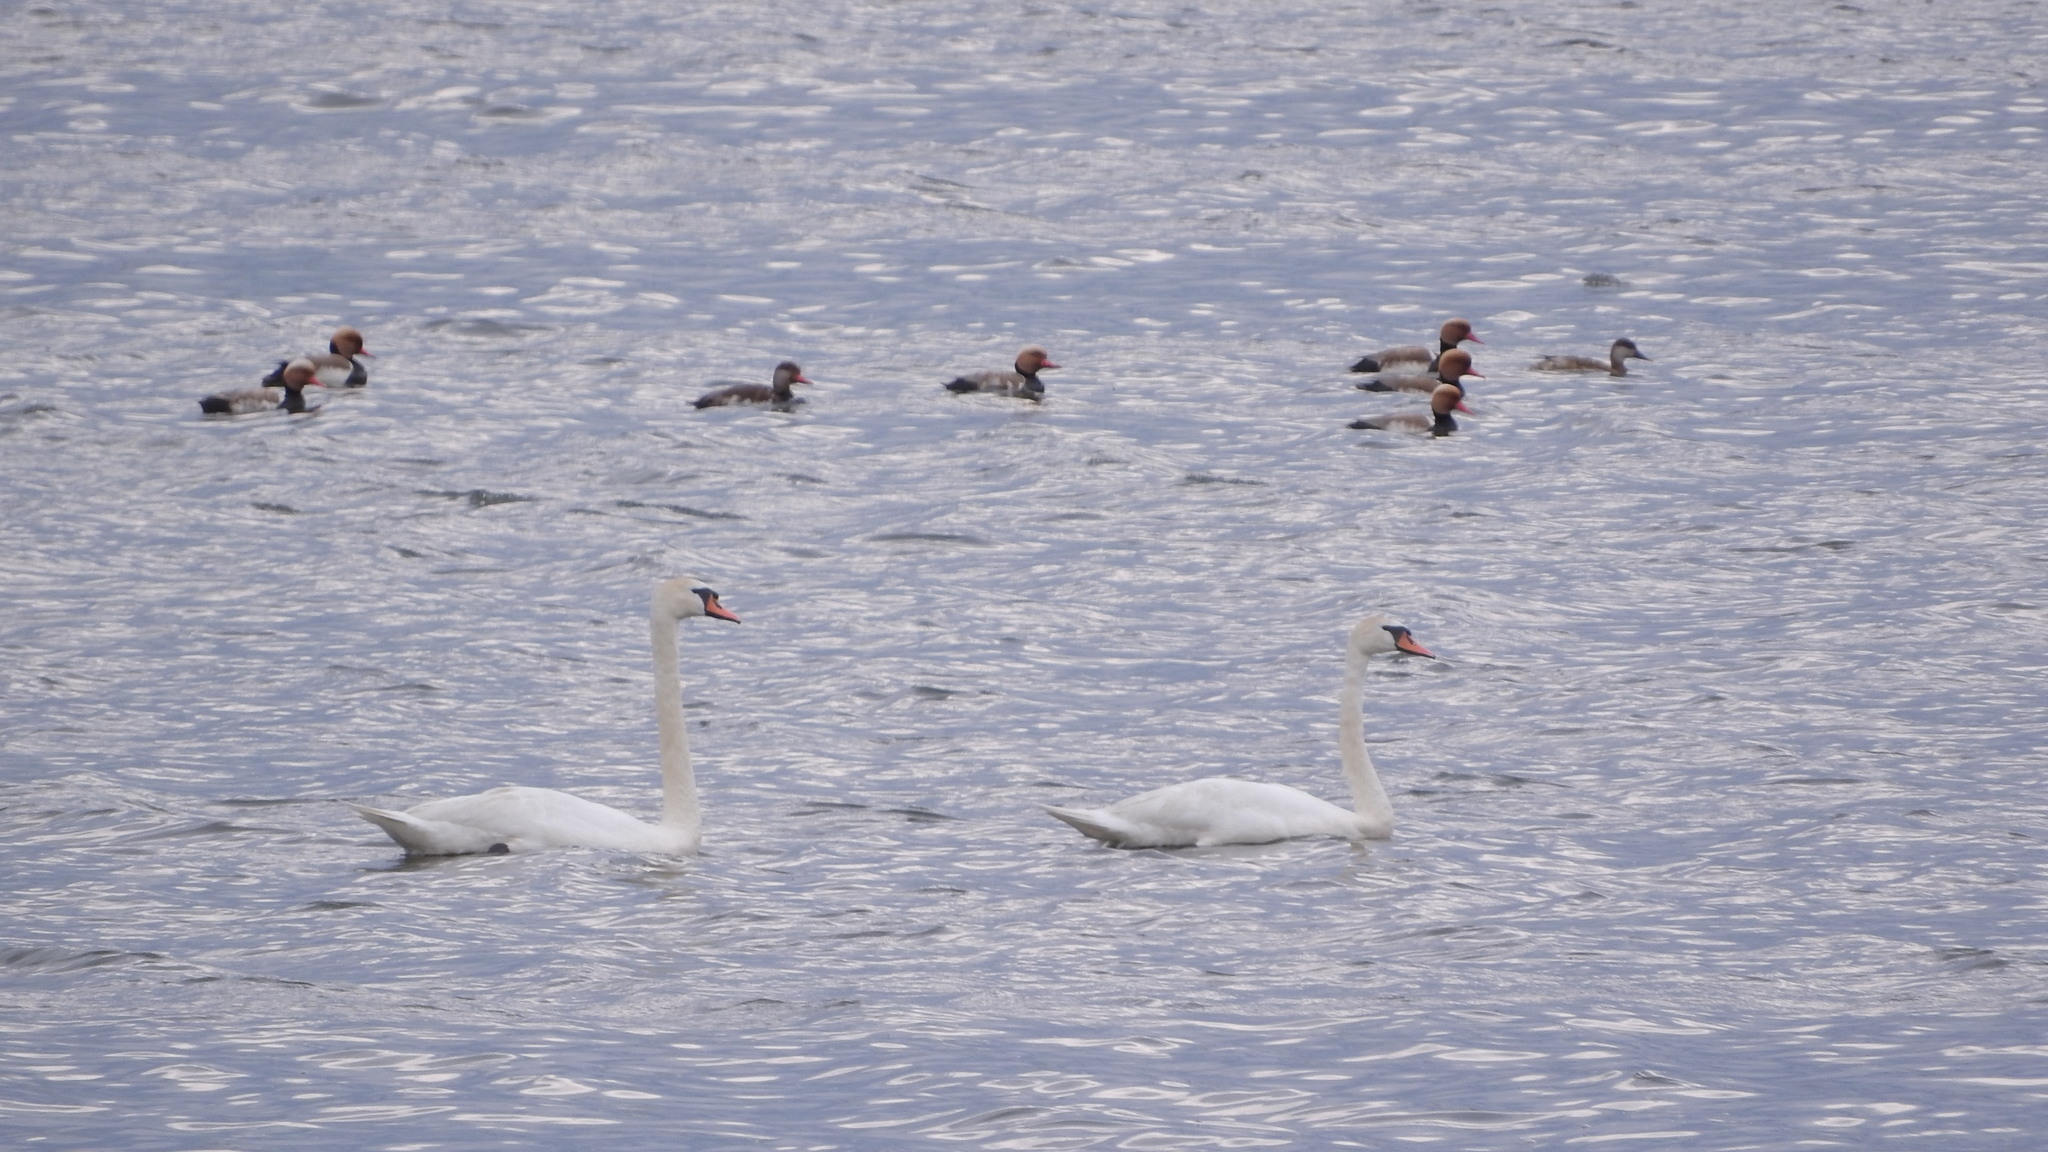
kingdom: Animalia
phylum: Chordata
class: Aves
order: Anseriformes
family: Anatidae
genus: Cygnus
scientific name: Cygnus olor
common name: Mute swan
